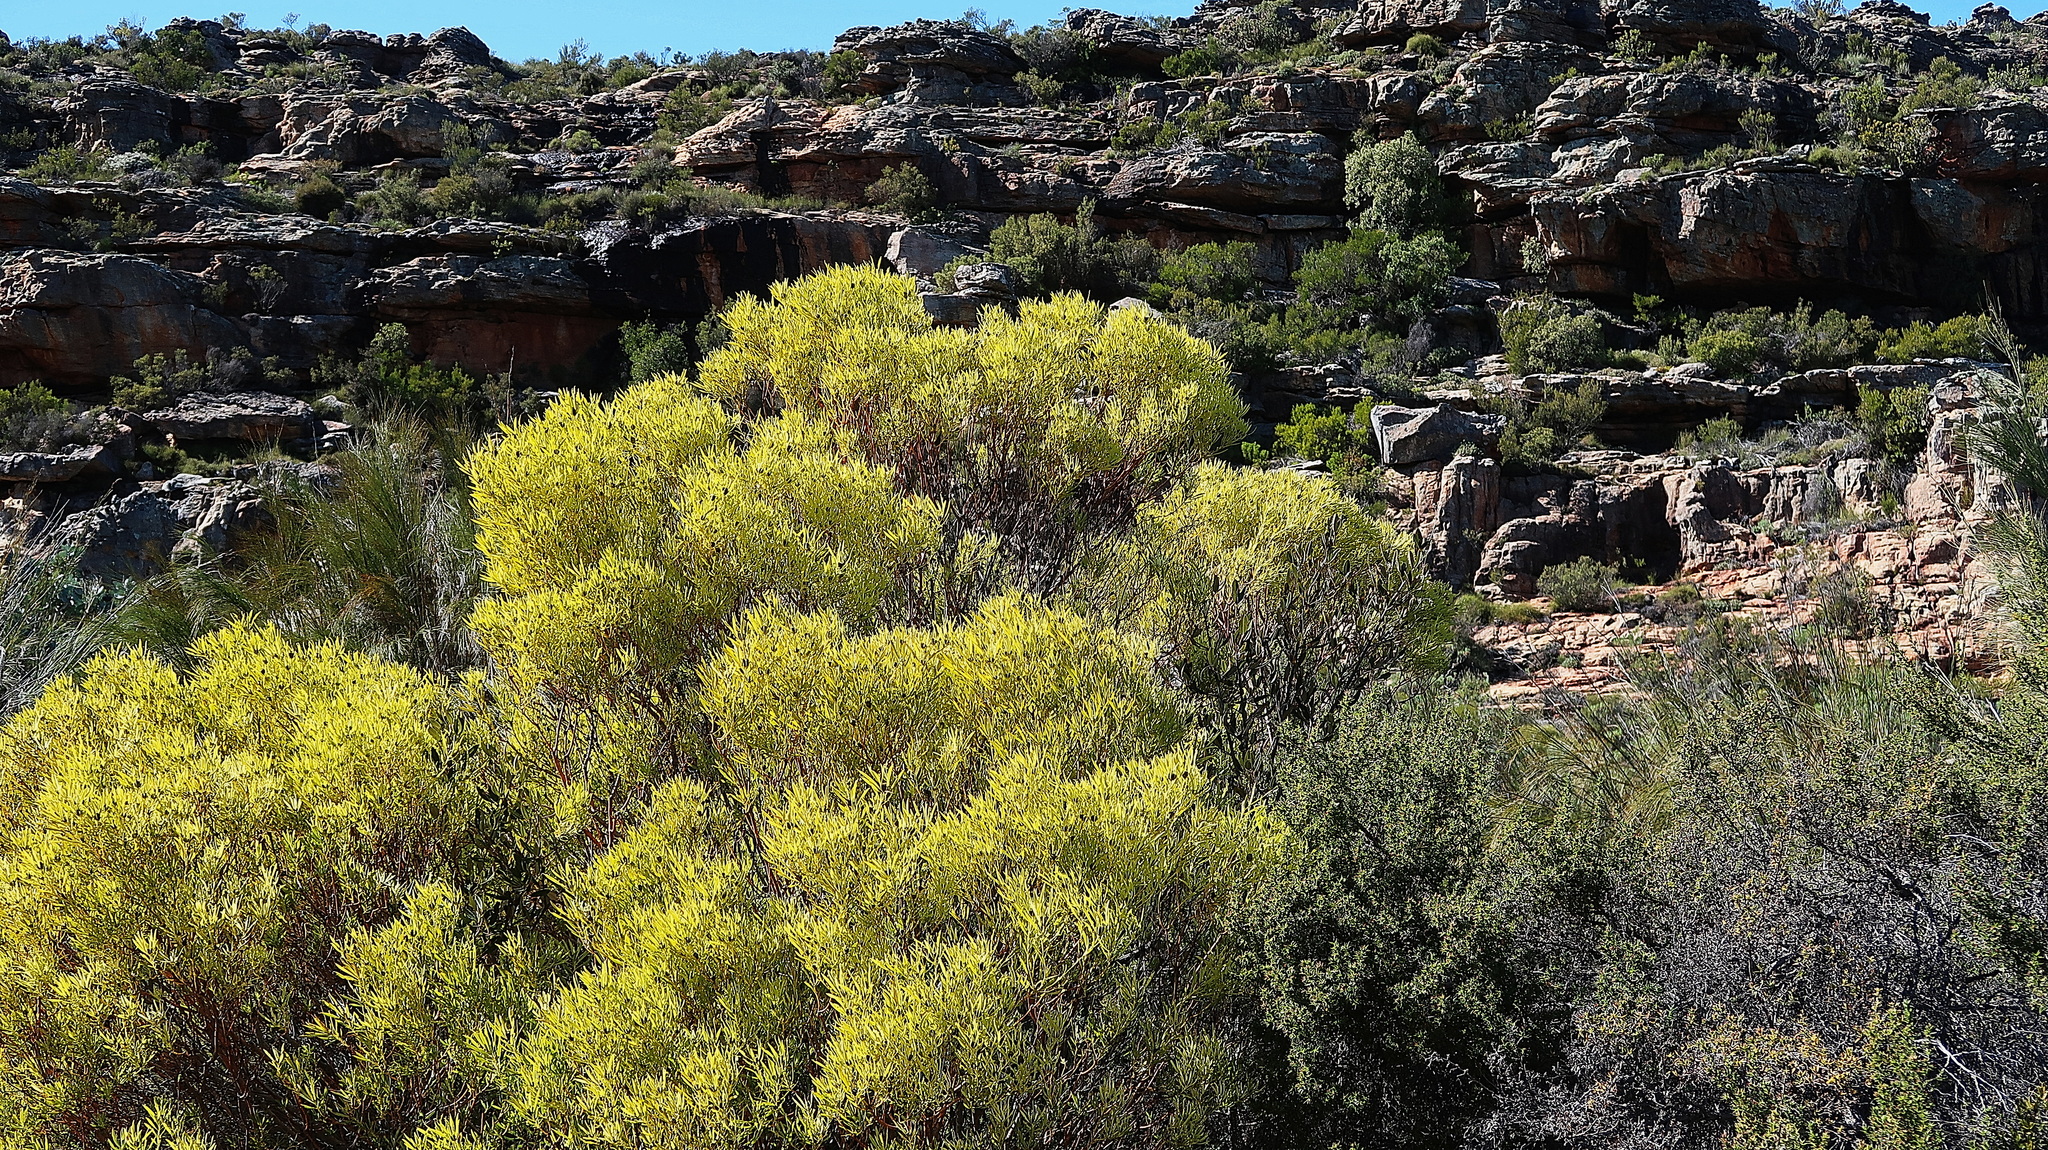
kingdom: Plantae
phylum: Tracheophyta
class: Magnoliopsida
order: Proteales
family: Proteaceae
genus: Leucadendron
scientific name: Leucadendron salignum
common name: Common sunshine conebush
